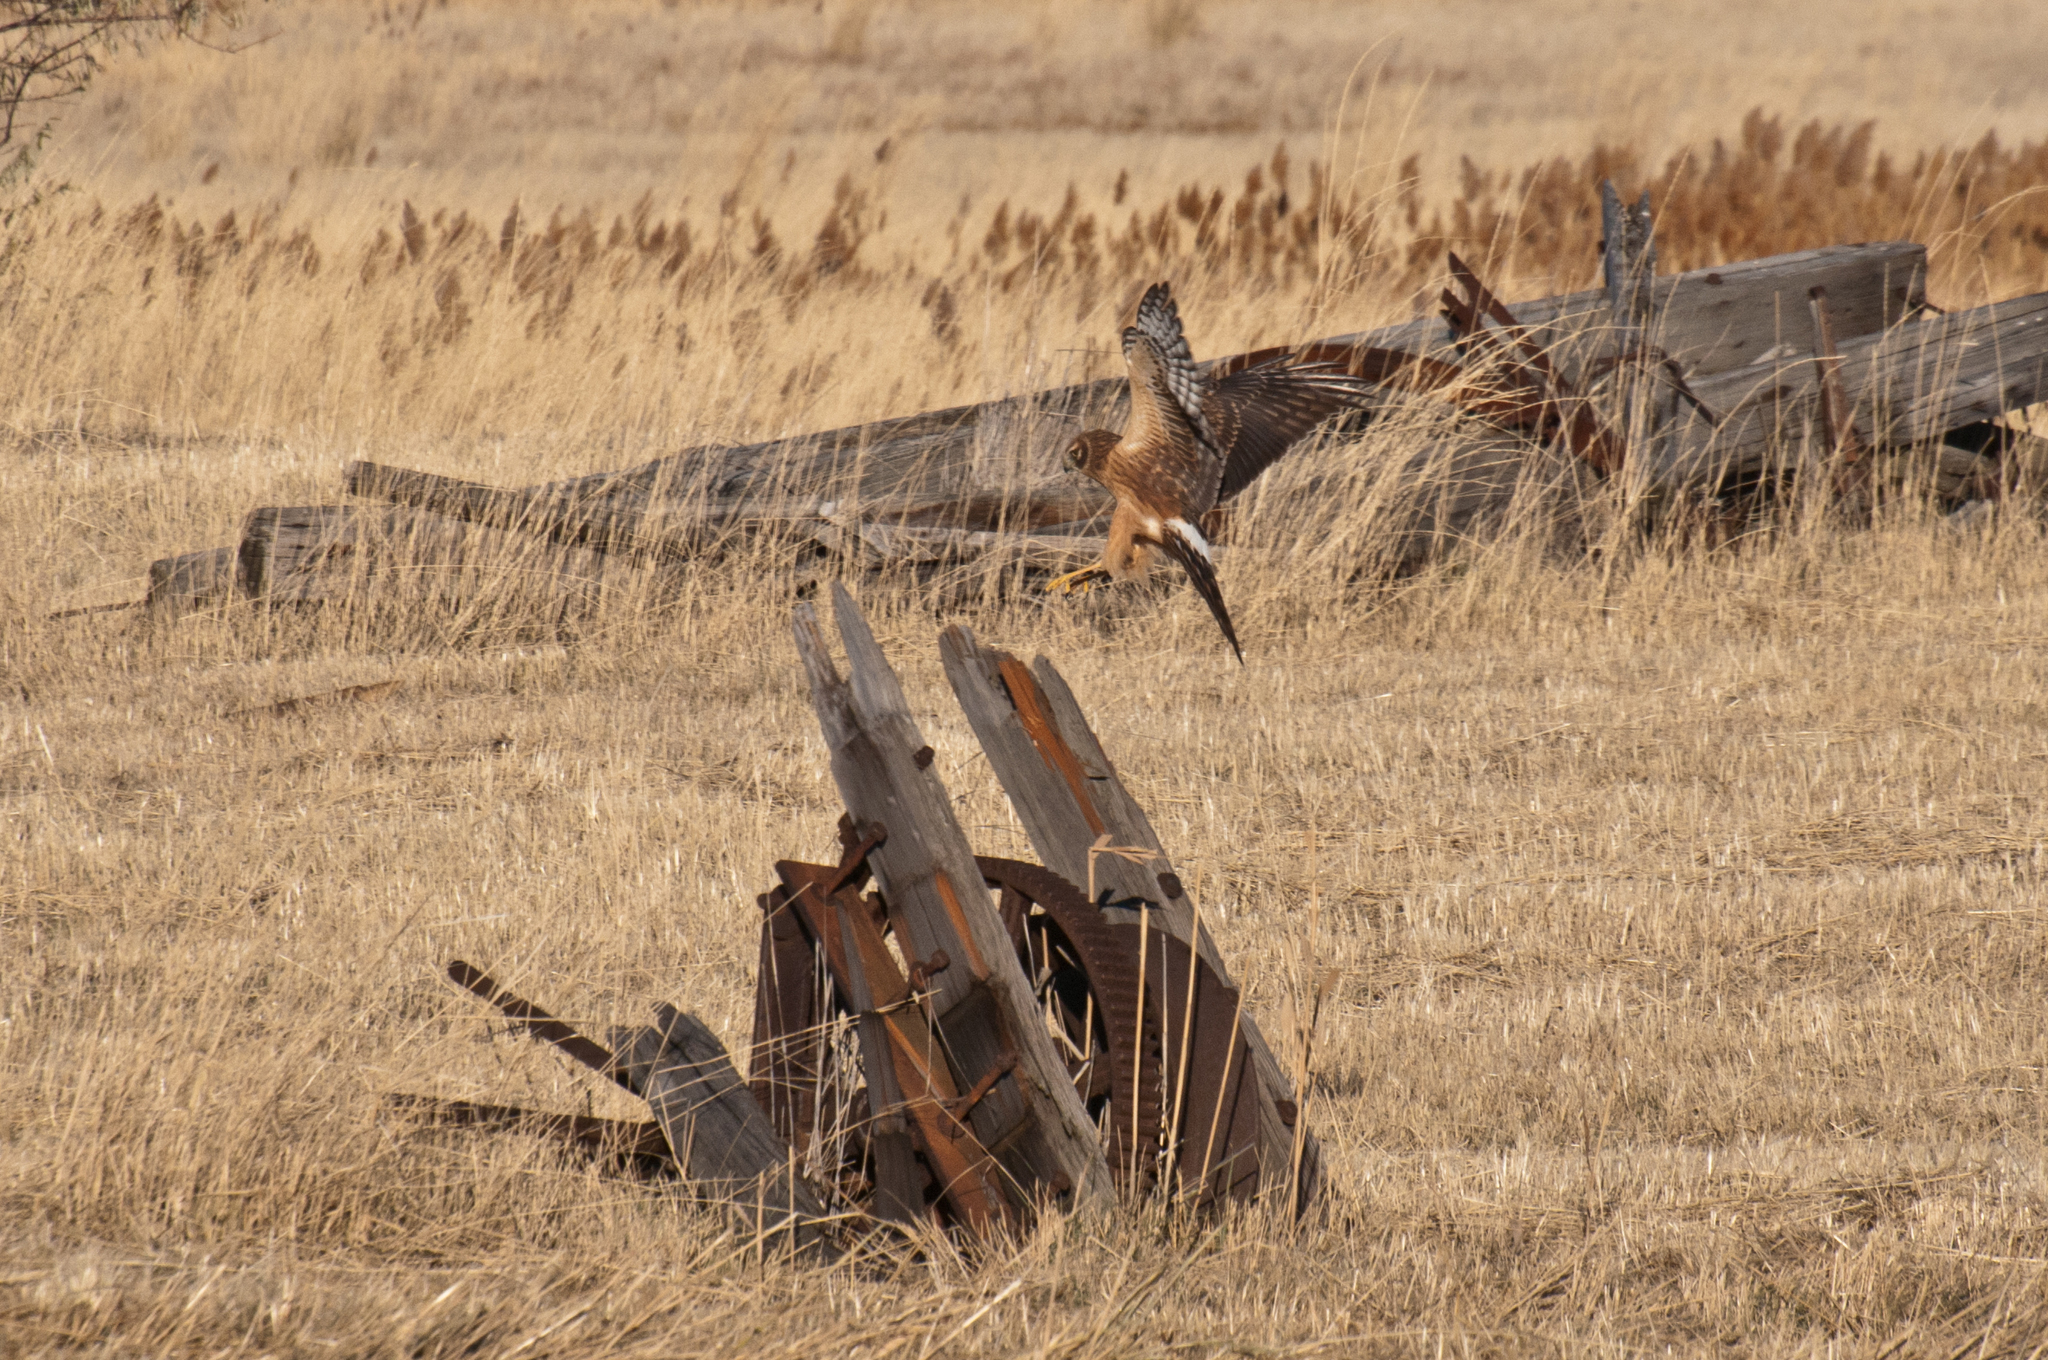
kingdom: Animalia
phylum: Chordata
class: Aves
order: Accipitriformes
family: Accipitridae
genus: Circus
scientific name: Circus cyaneus
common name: Hen harrier
